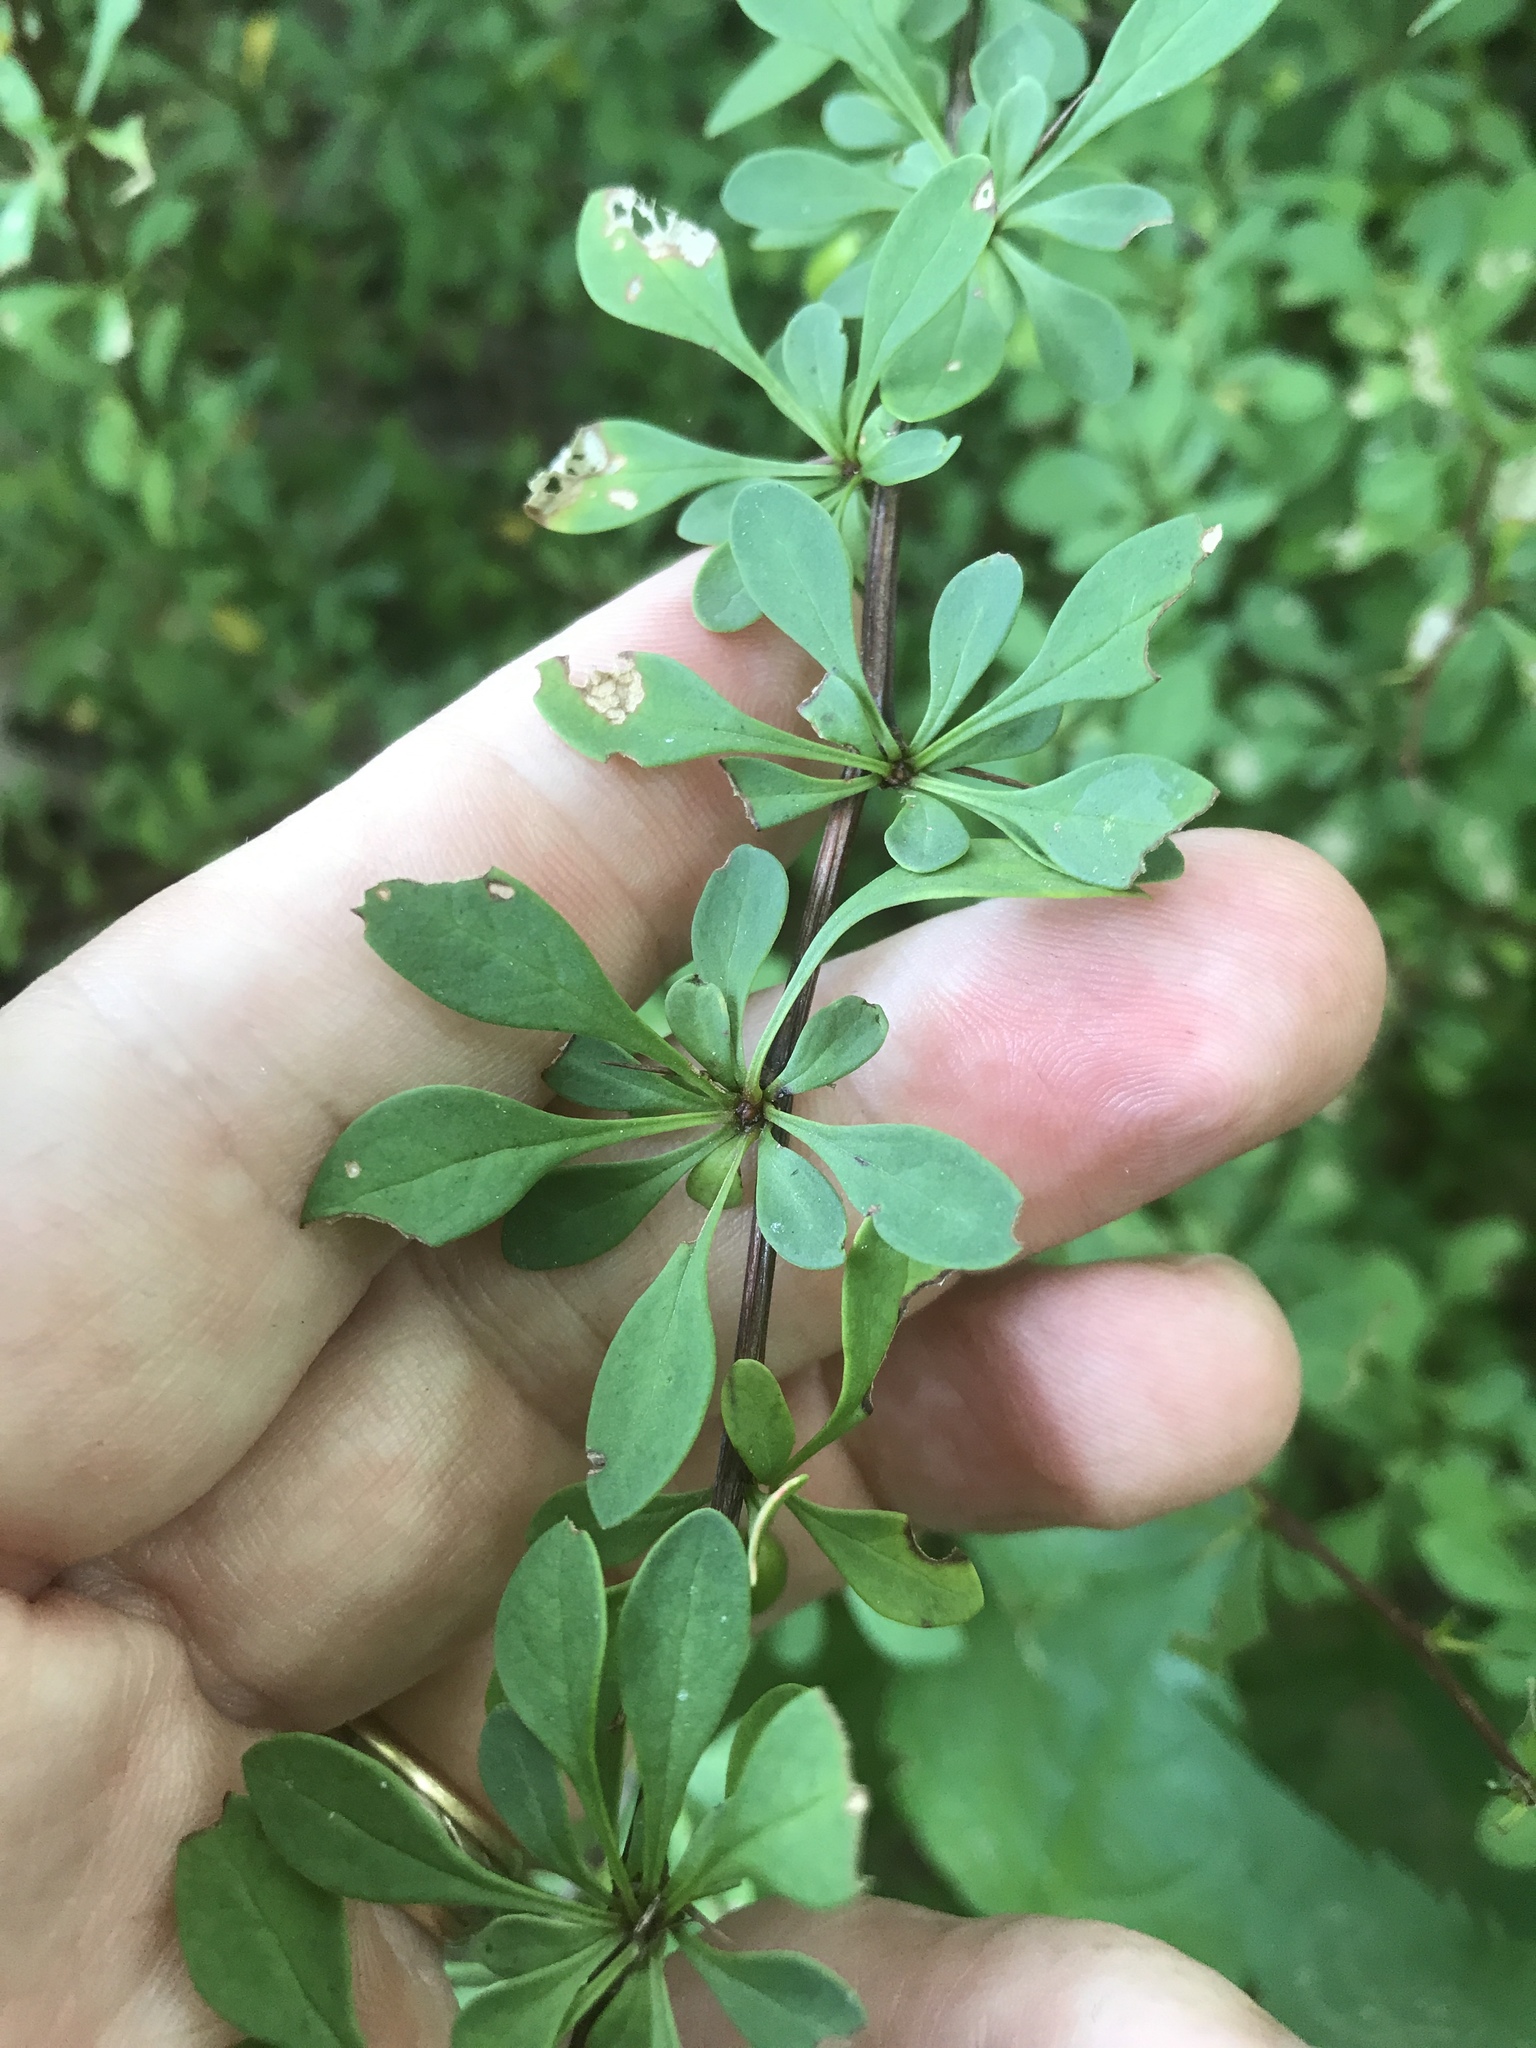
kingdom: Plantae
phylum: Tracheophyta
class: Magnoliopsida
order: Ranunculales
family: Berberidaceae
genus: Berberis
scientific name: Berberis thunbergii
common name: Japanese barberry
